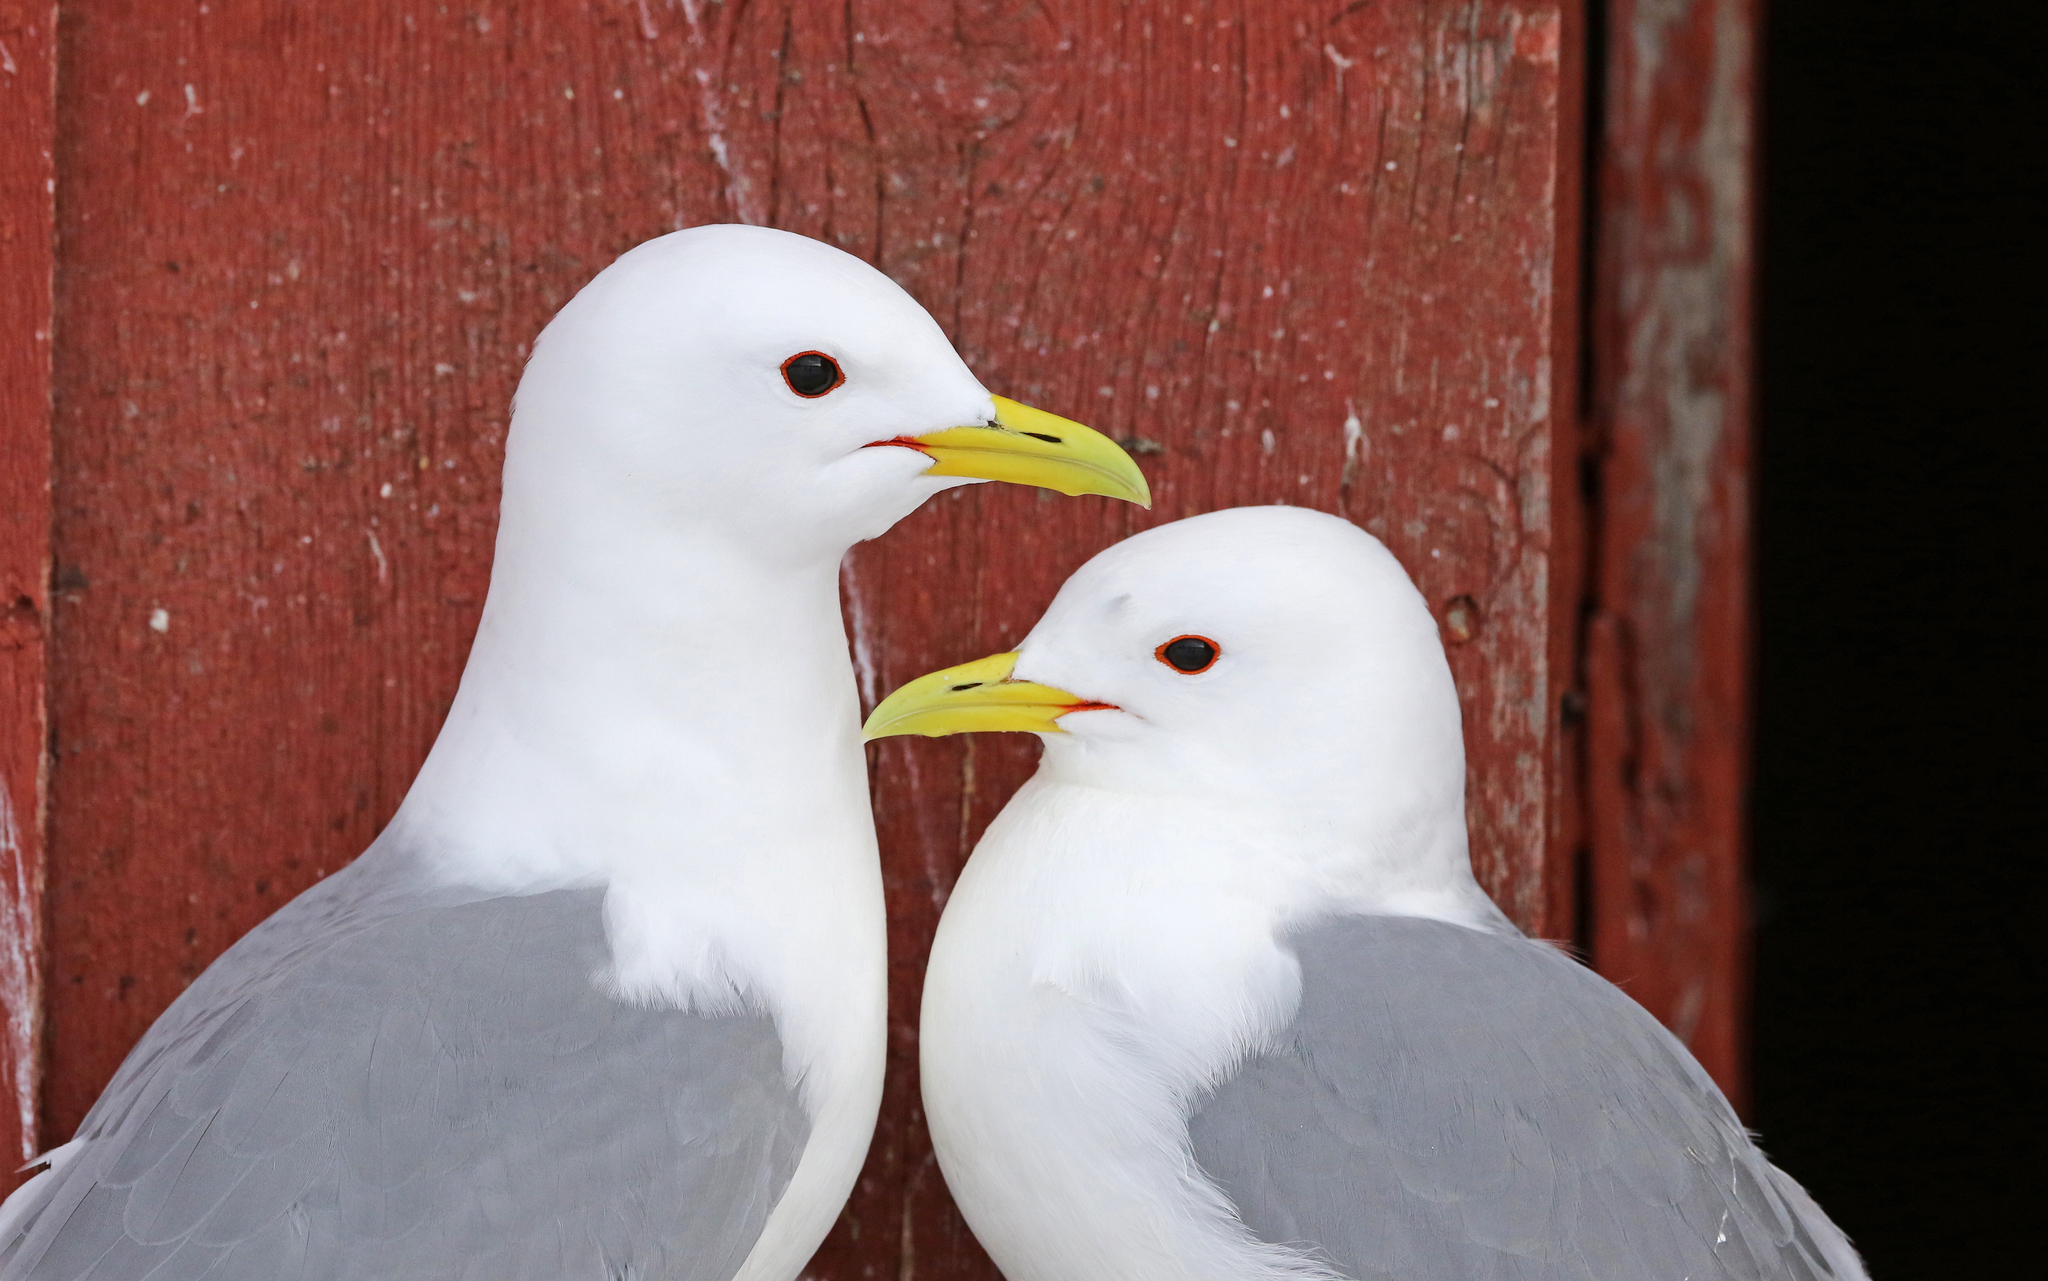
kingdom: Animalia
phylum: Chordata
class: Aves
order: Charadriiformes
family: Laridae
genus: Rissa
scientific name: Rissa tridactyla
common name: Black-legged kittiwake
